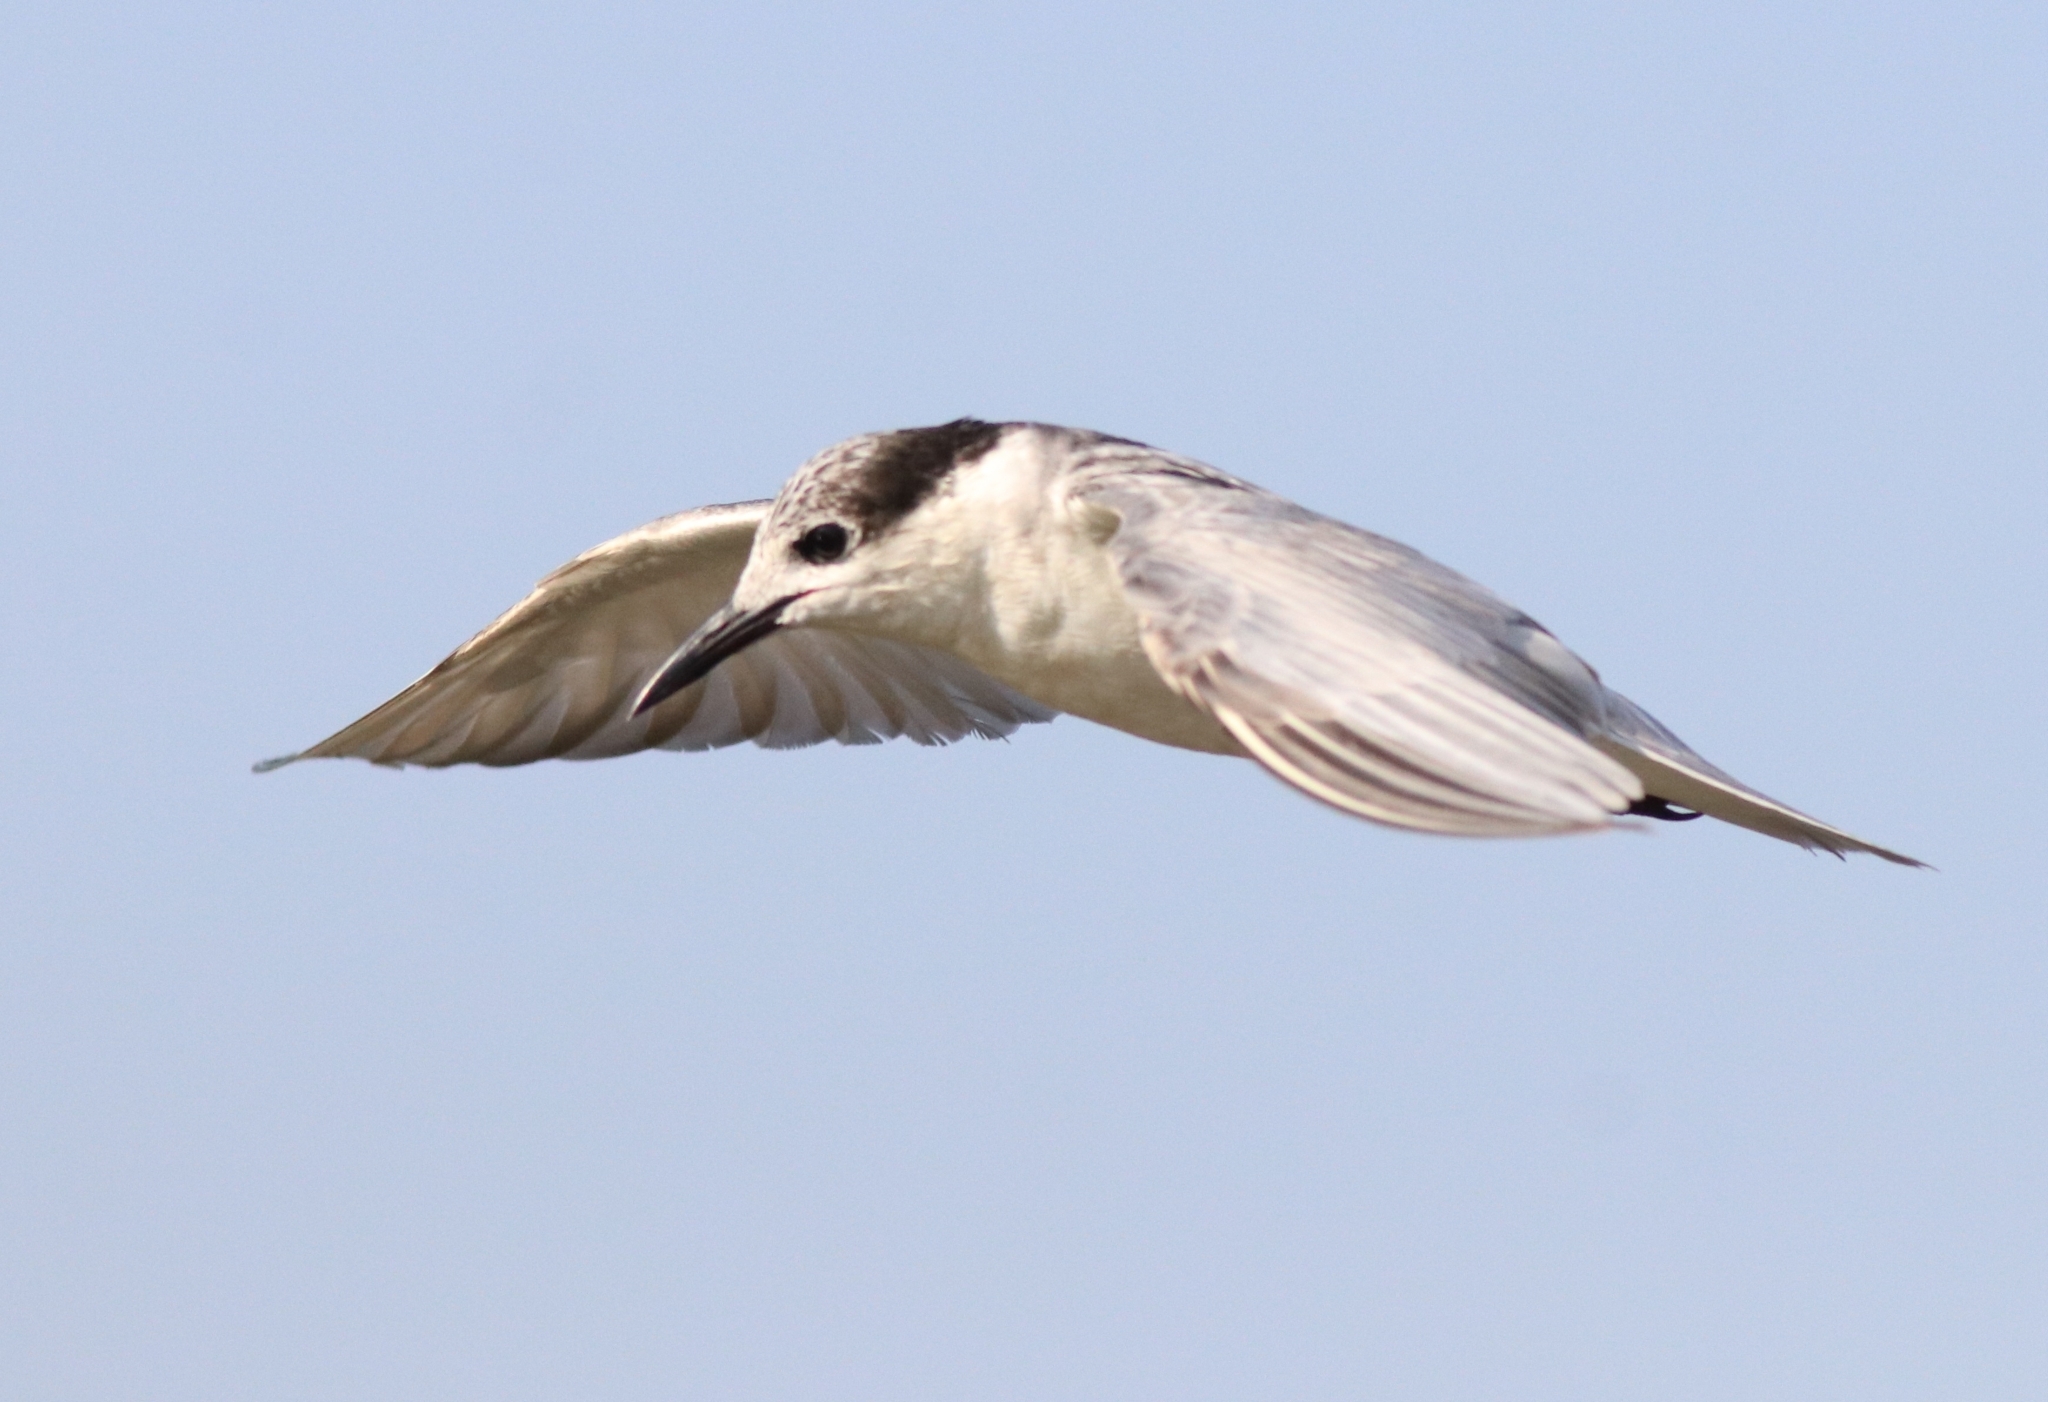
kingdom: Animalia
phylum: Chordata
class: Aves
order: Charadriiformes
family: Laridae
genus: Chlidonias
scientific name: Chlidonias hybrida
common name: Whiskered tern
